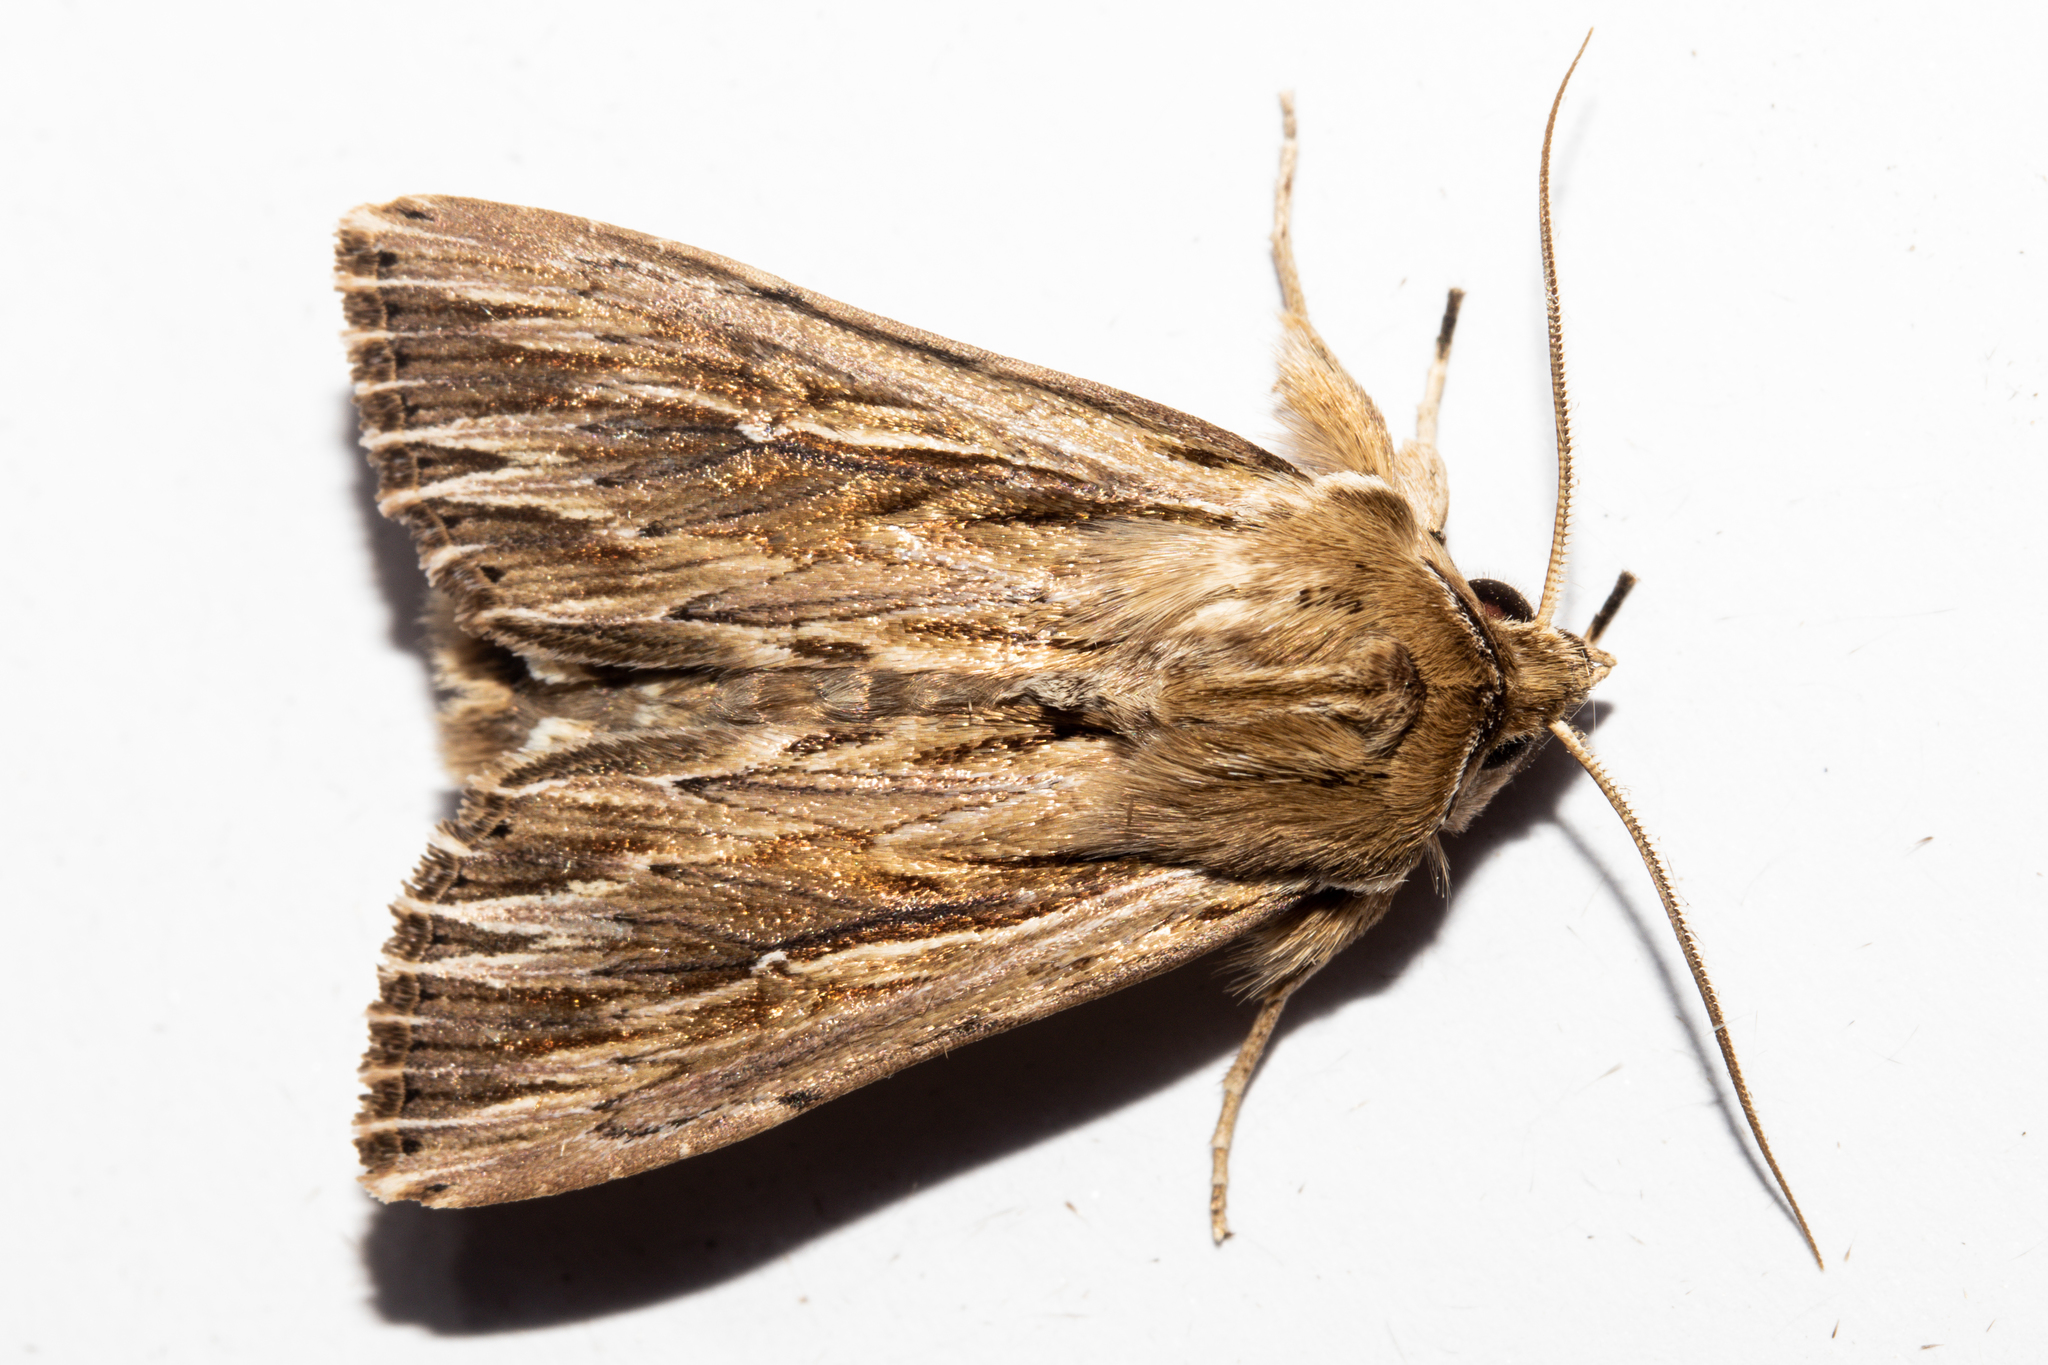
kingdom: Animalia
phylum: Arthropoda
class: Insecta
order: Lepidoptera
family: Noctuidae
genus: Persectania
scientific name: Persectania aversa
